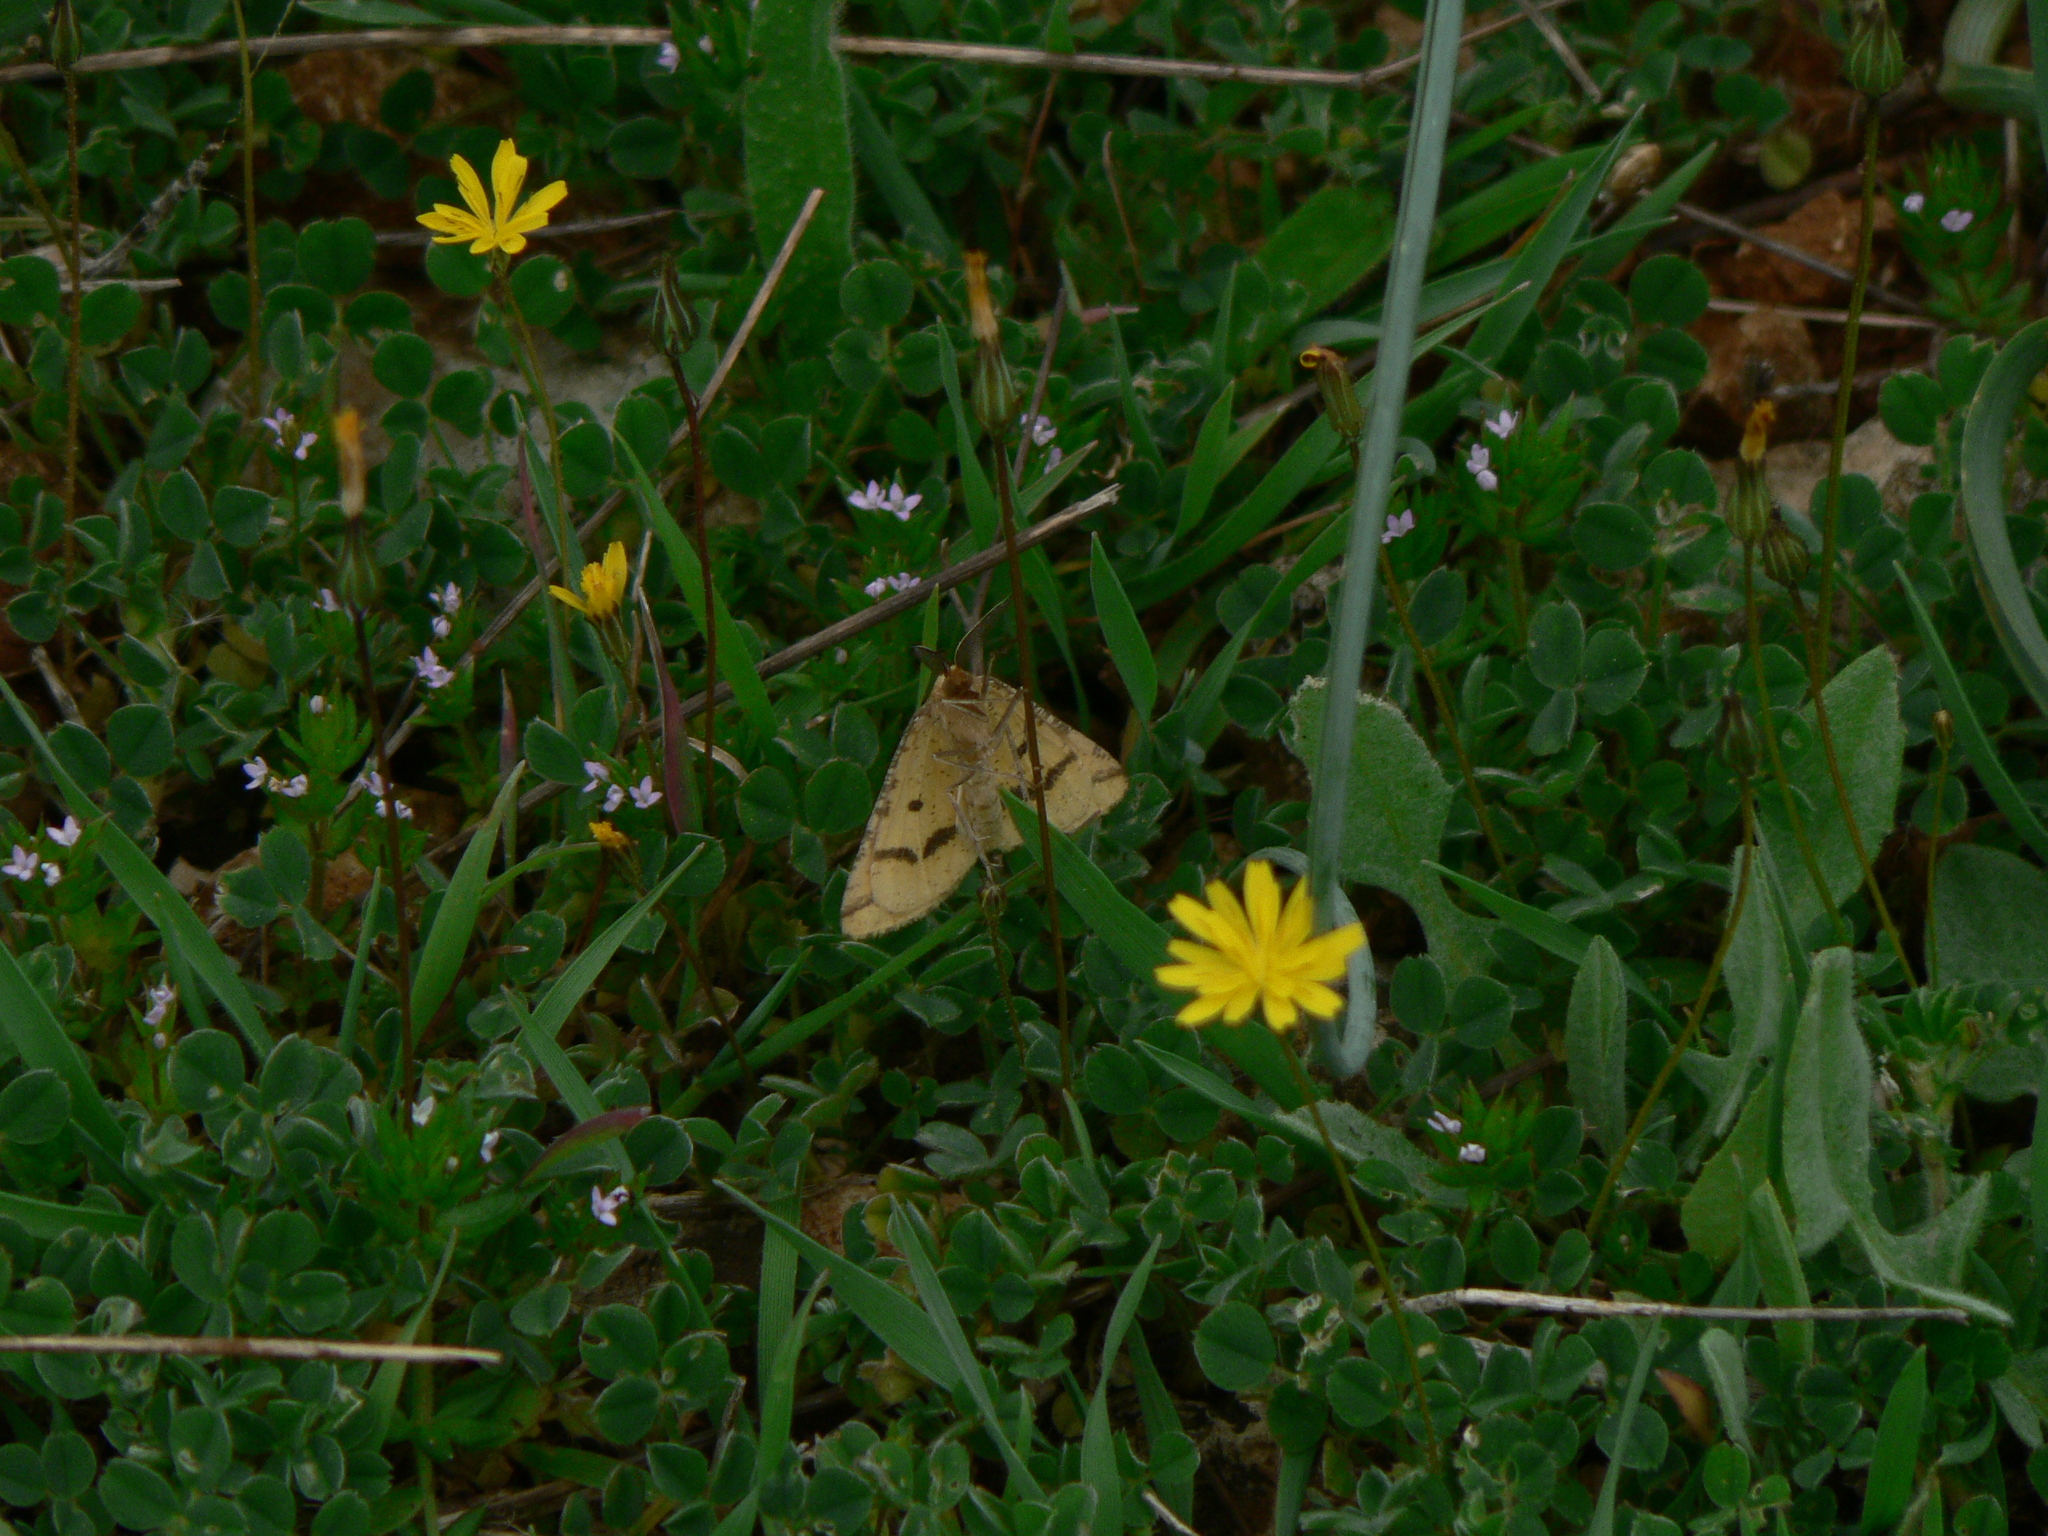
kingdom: Animalia
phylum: Arthropoda
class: Insecta
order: Lepidoptera
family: Geometridae
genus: Aspitates
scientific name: Aspitates ochrearia
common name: Yellow belle
